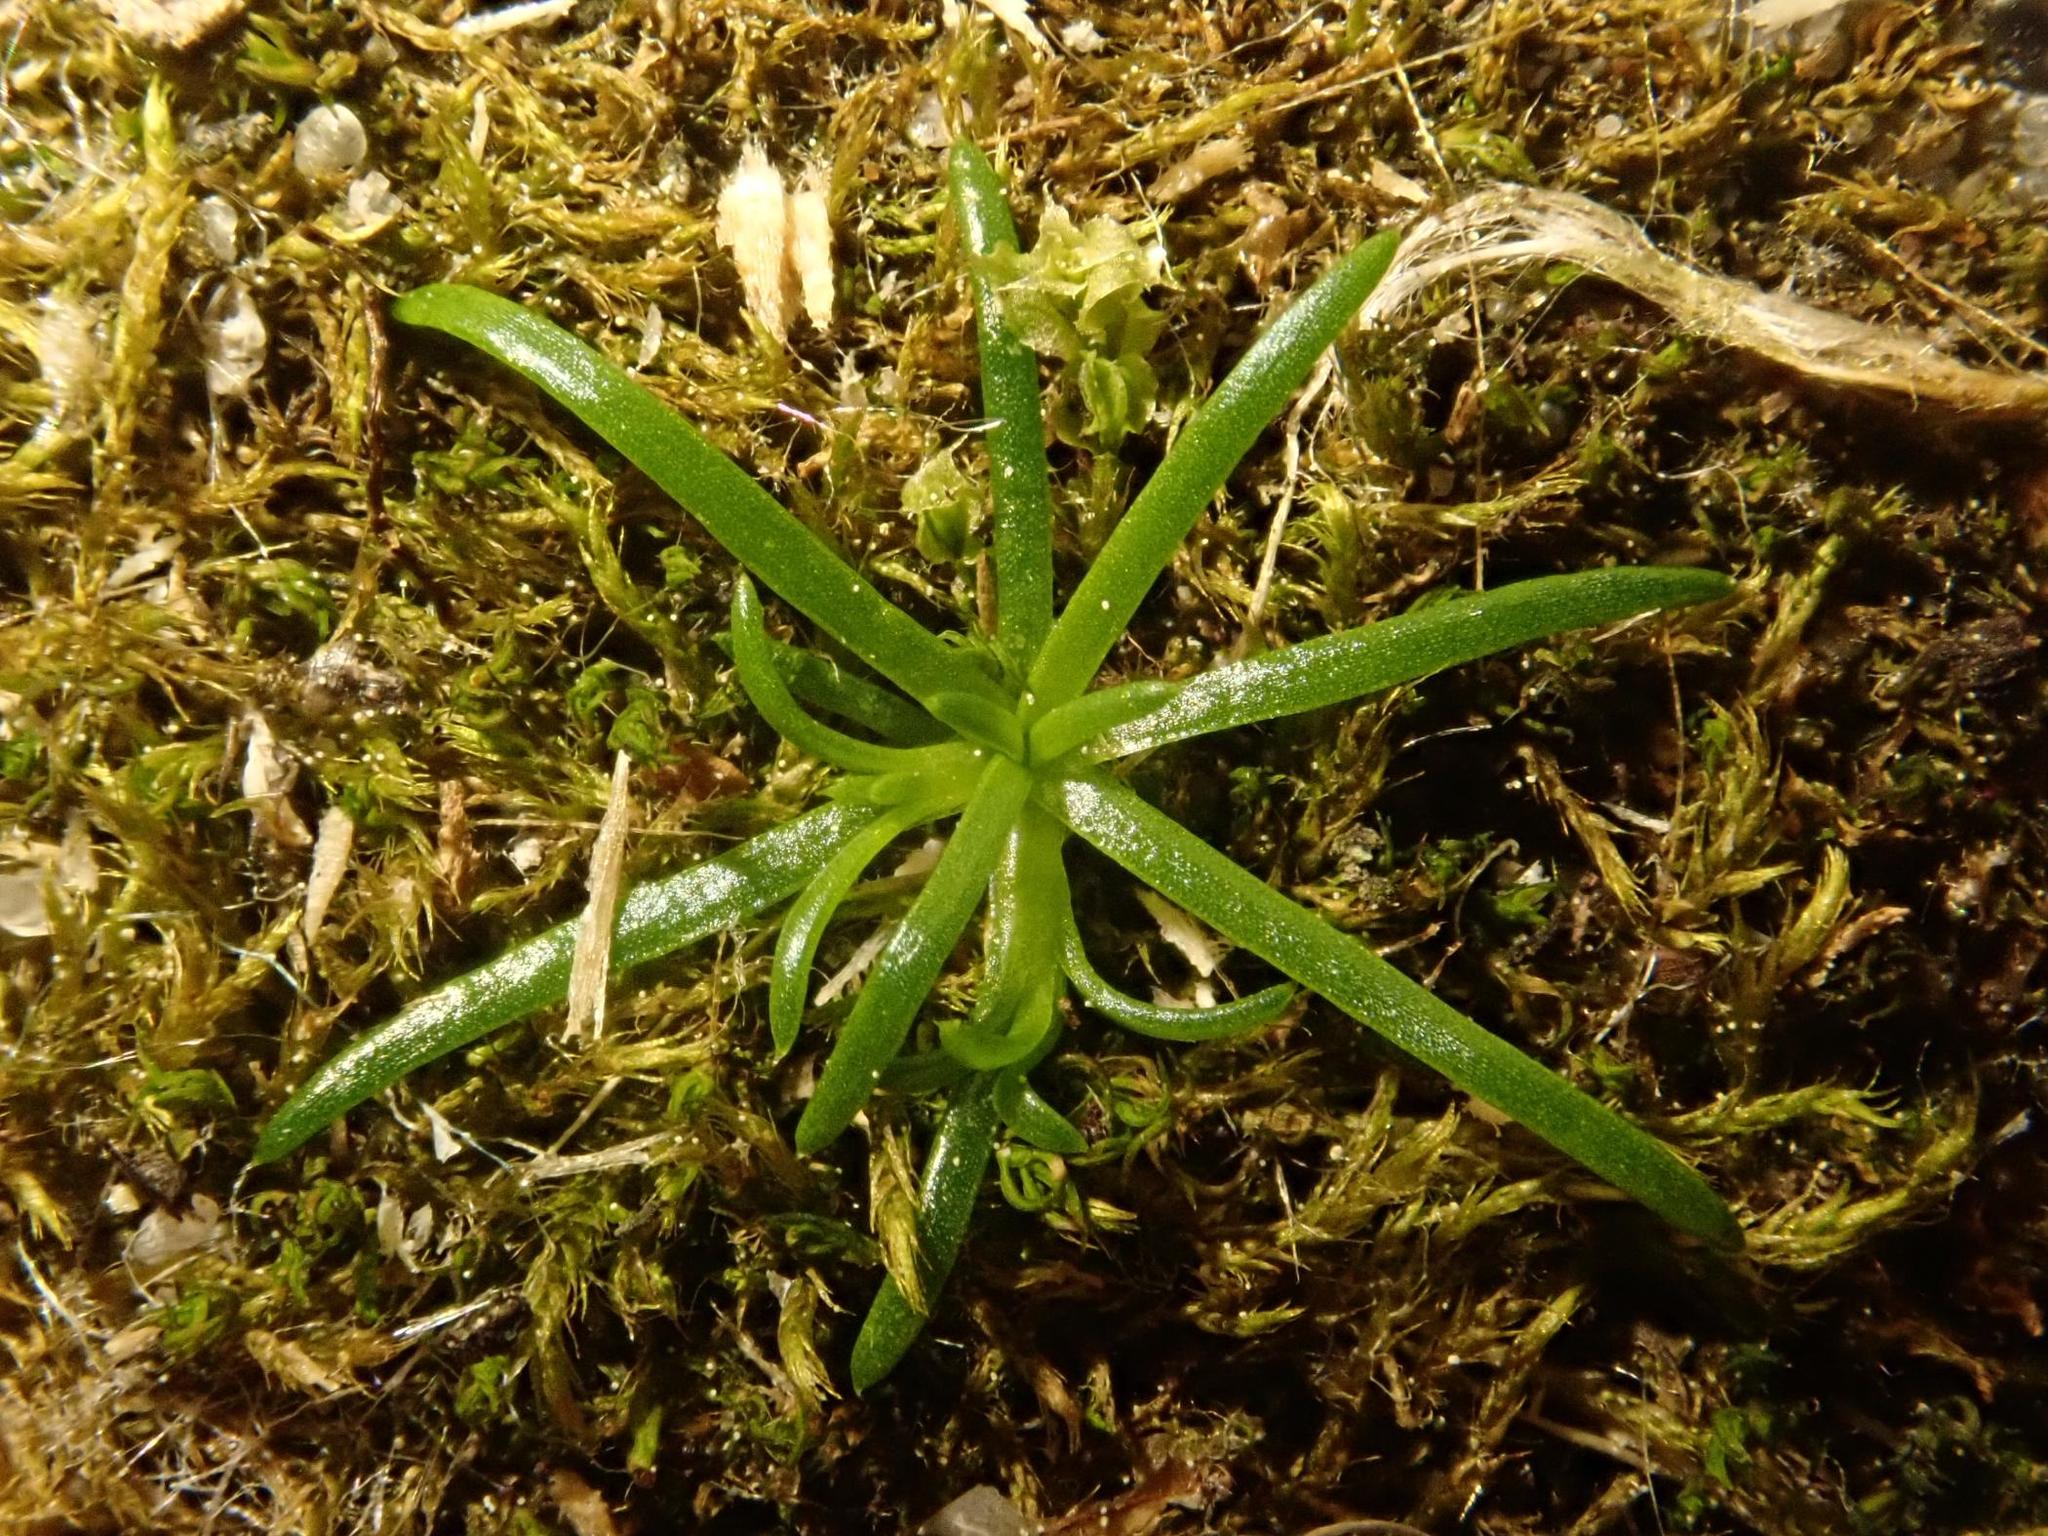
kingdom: Plantae
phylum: Tracheophyta
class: Magnoliopsida
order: Caryophyllales
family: Caryophyllaceae
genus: Sagina
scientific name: Sagina procumbens
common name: Procumbent pearlwort
